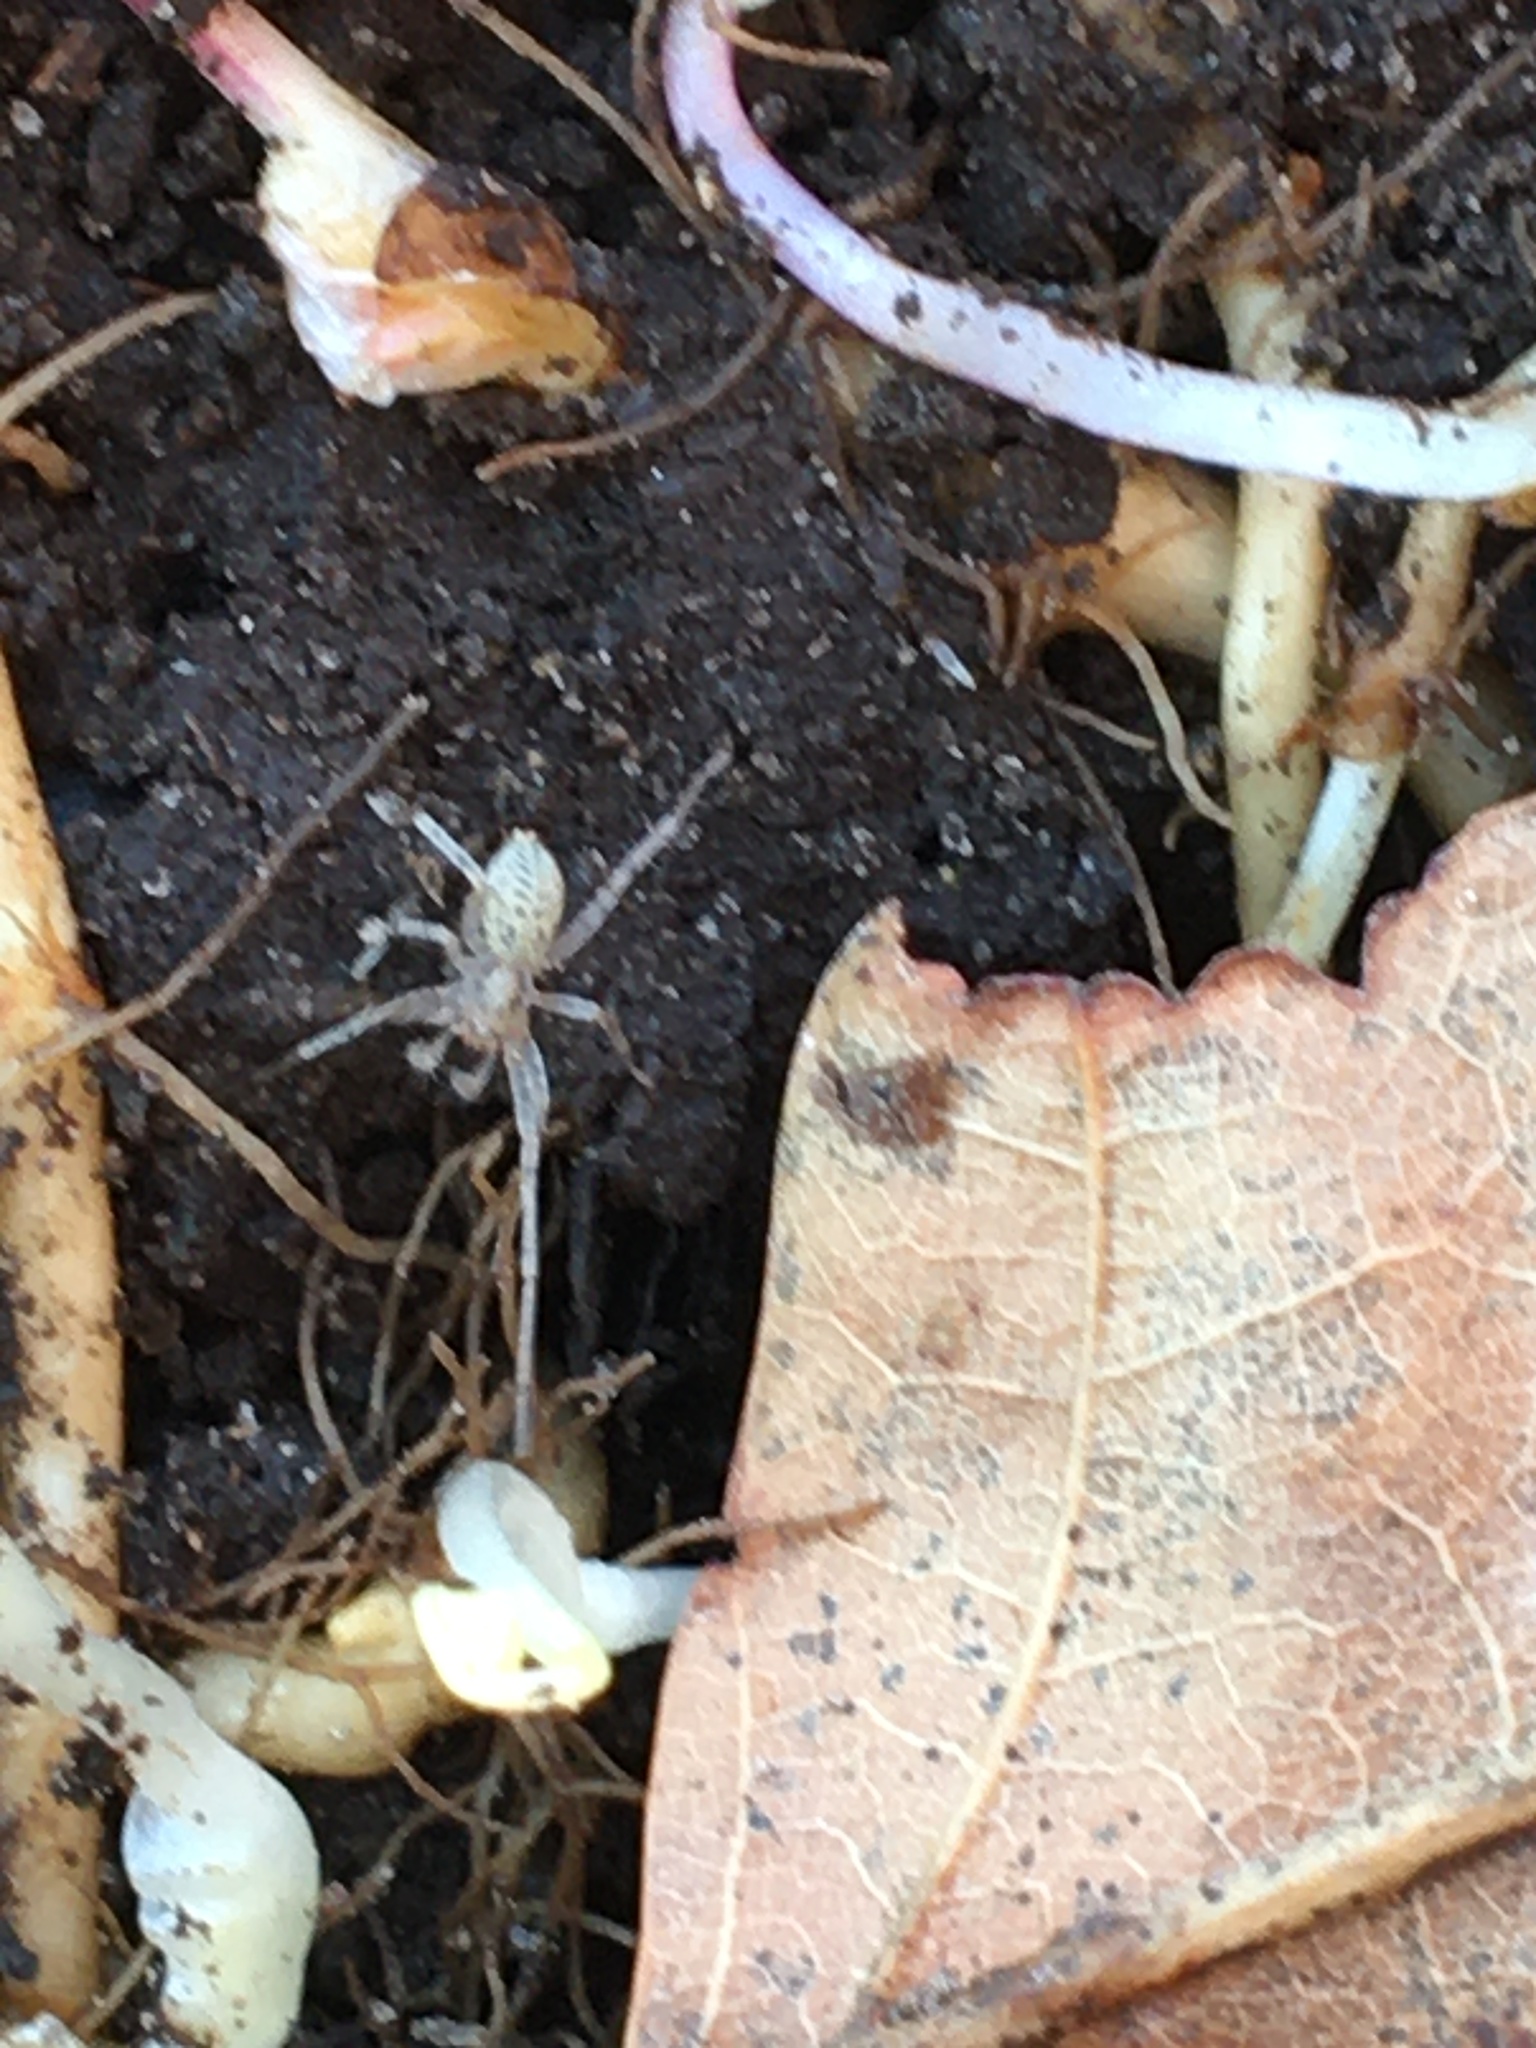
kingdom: Animalia
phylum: Arthropoda
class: Arachnida
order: Araneae
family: Anyphaenidae
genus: Anyphaena
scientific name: Anyphaena
